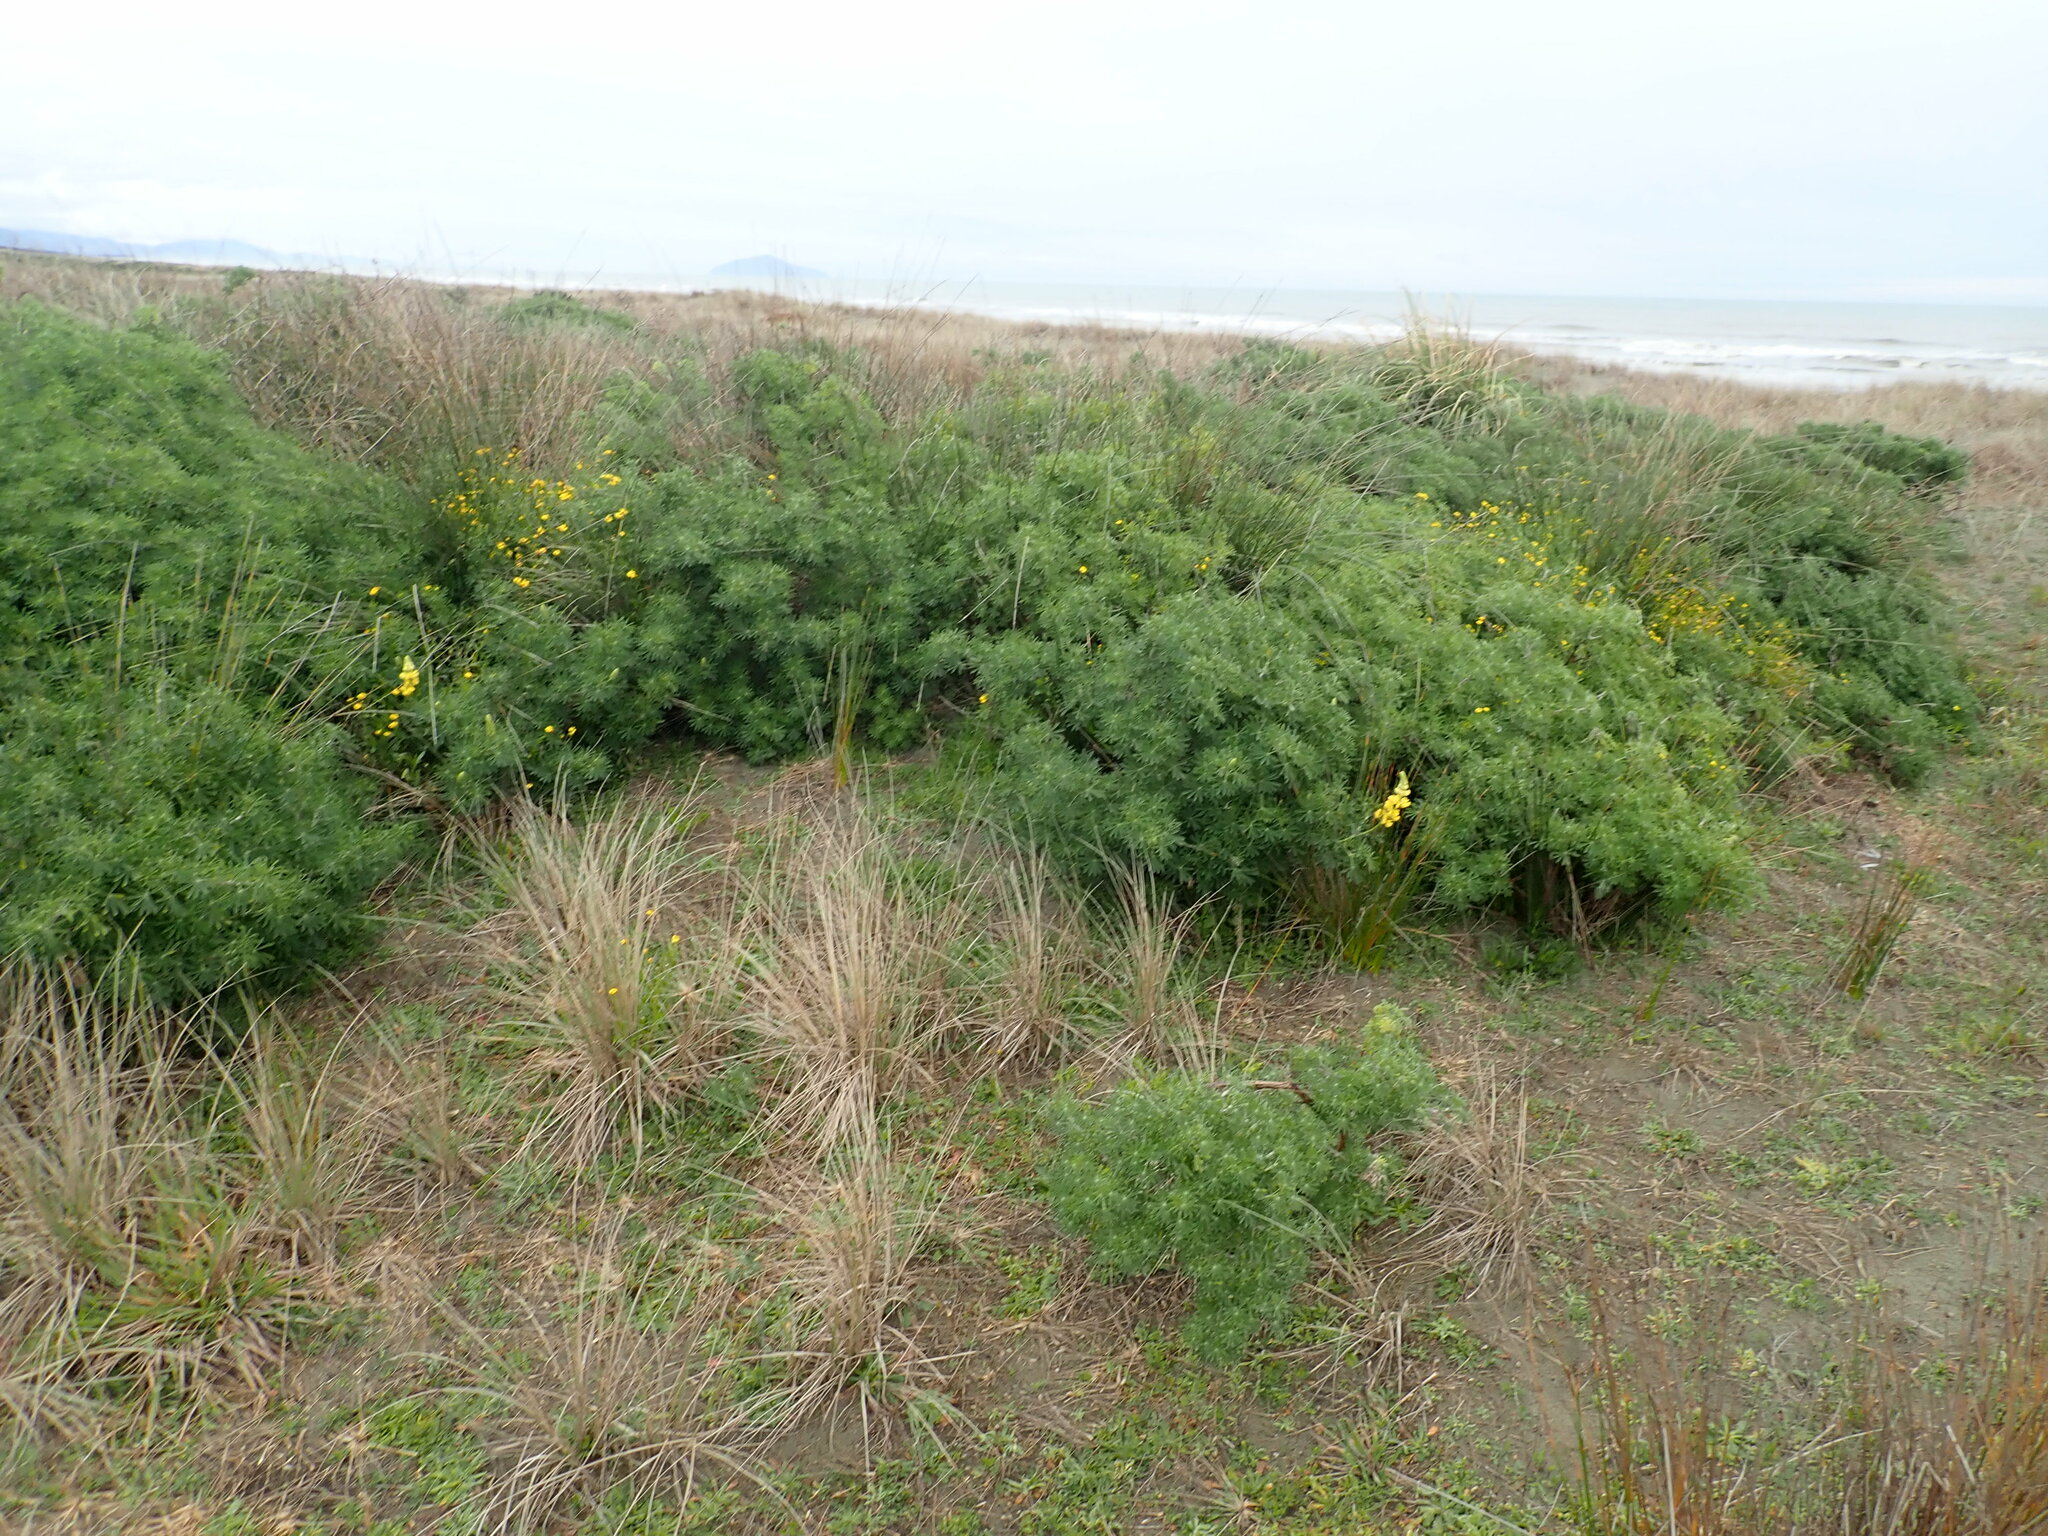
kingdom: Plantae
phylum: Tracheophyta
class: Magnoliopsida
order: Fabales
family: Fabaceae
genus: Lupinus
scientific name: Lupinus arboreus
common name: Yellow bush lupine
